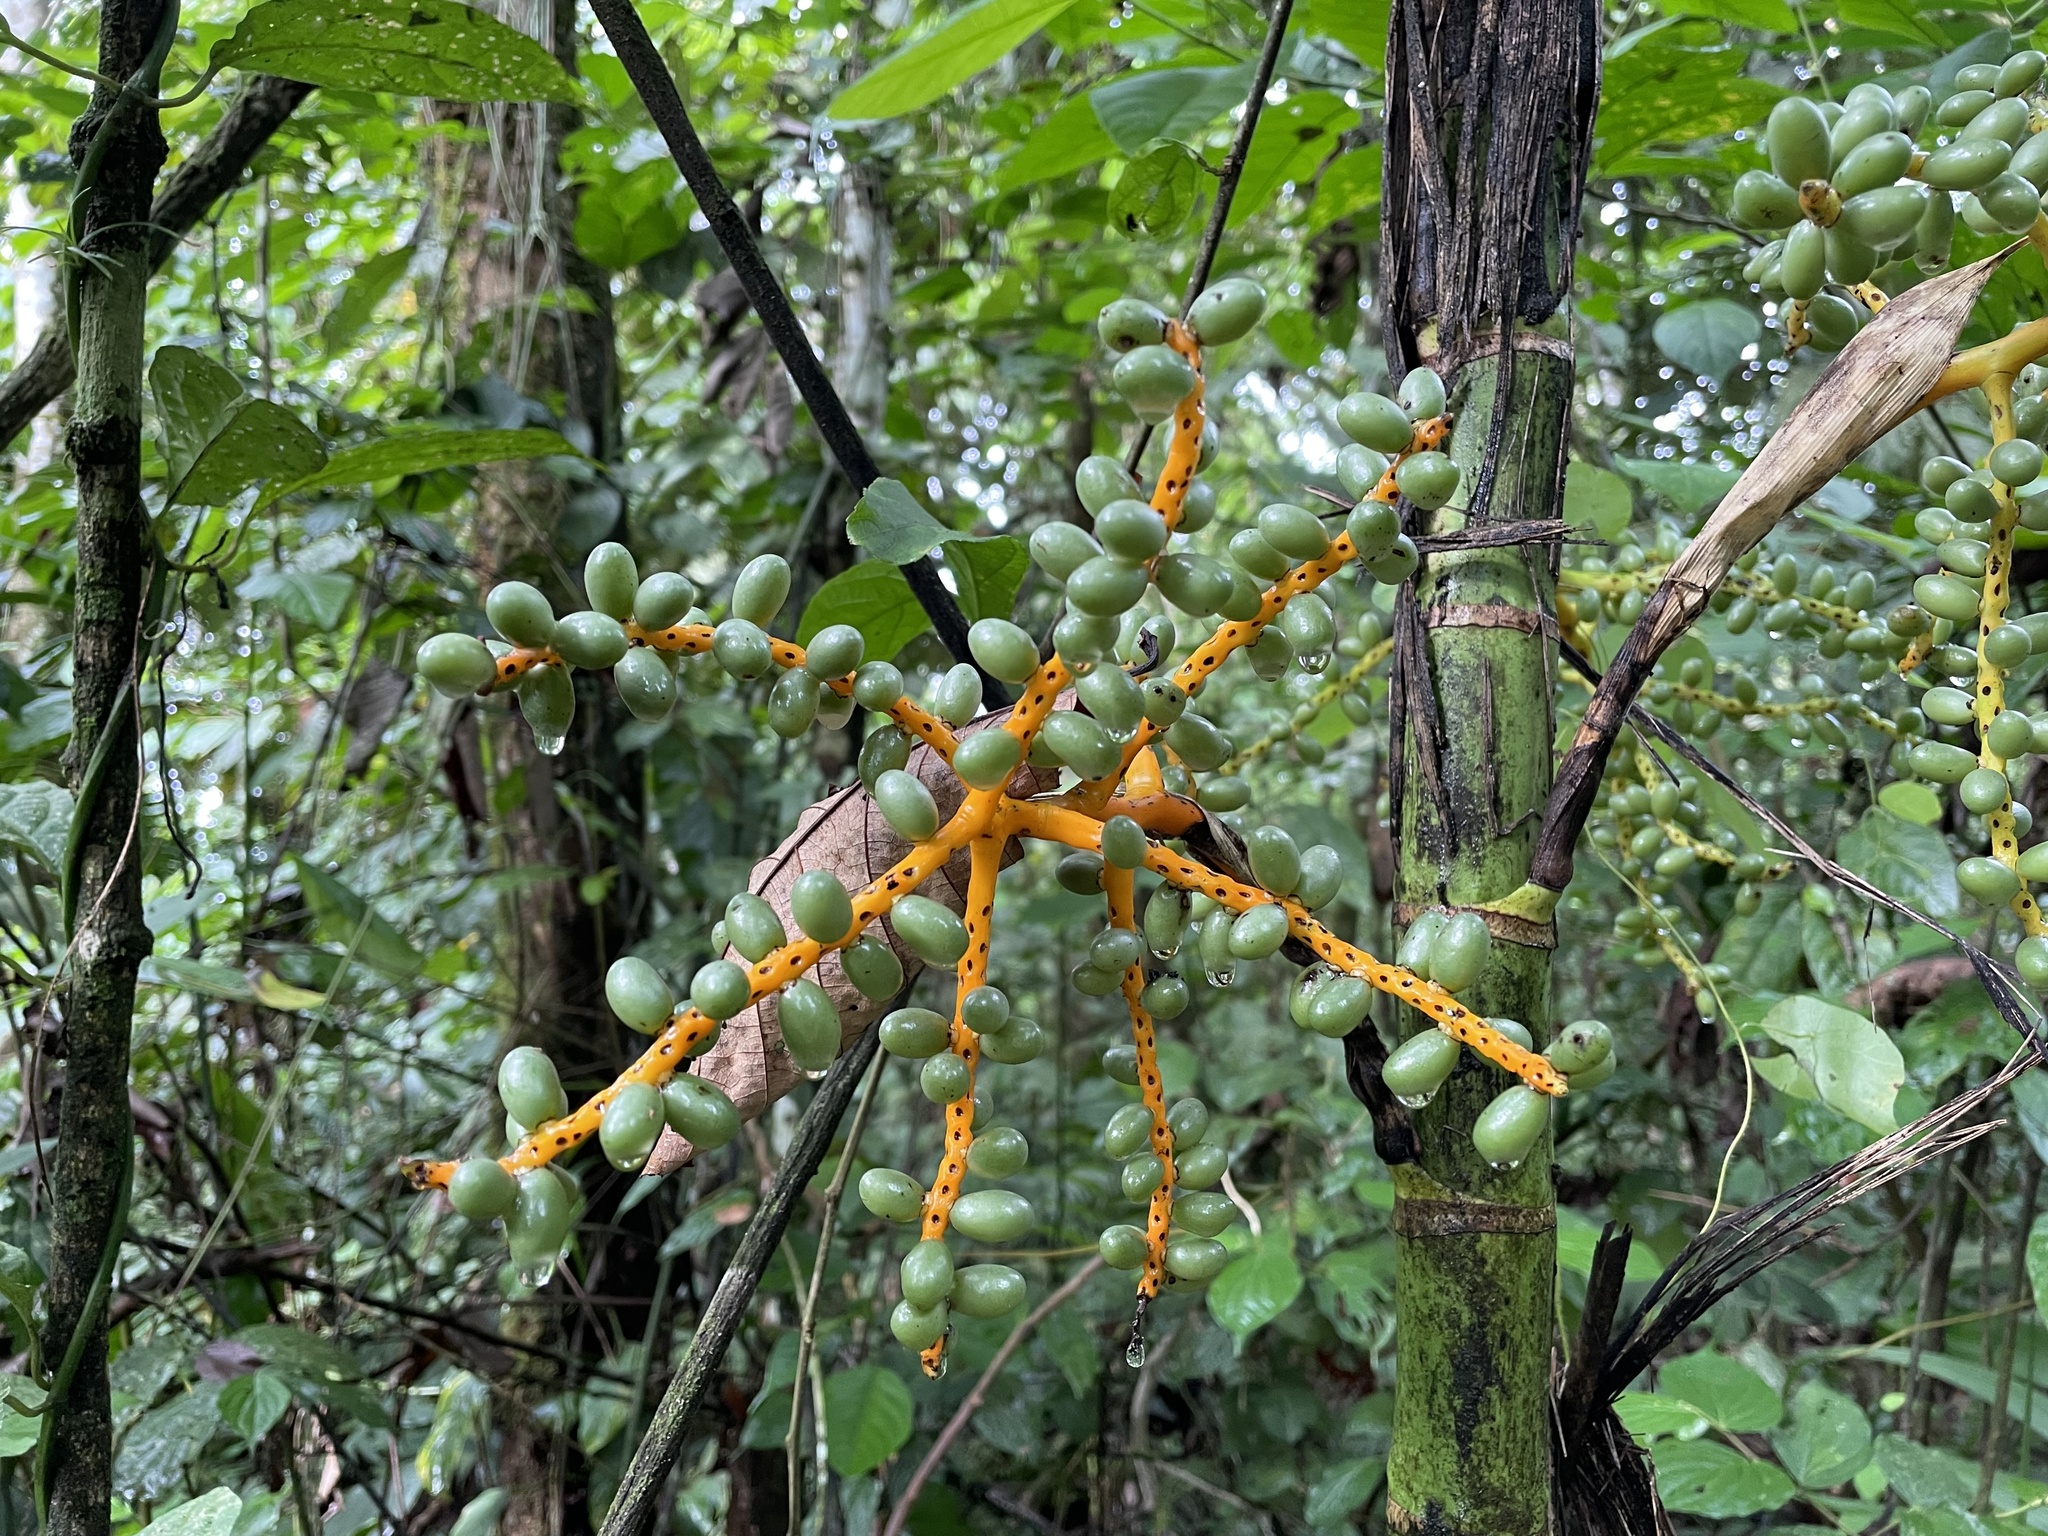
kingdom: Plantae
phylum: Tracheophyta
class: Liliopsida
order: Arecales
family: Arecaceae
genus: Chamaedorea
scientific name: Chamaedorea tepejilote
